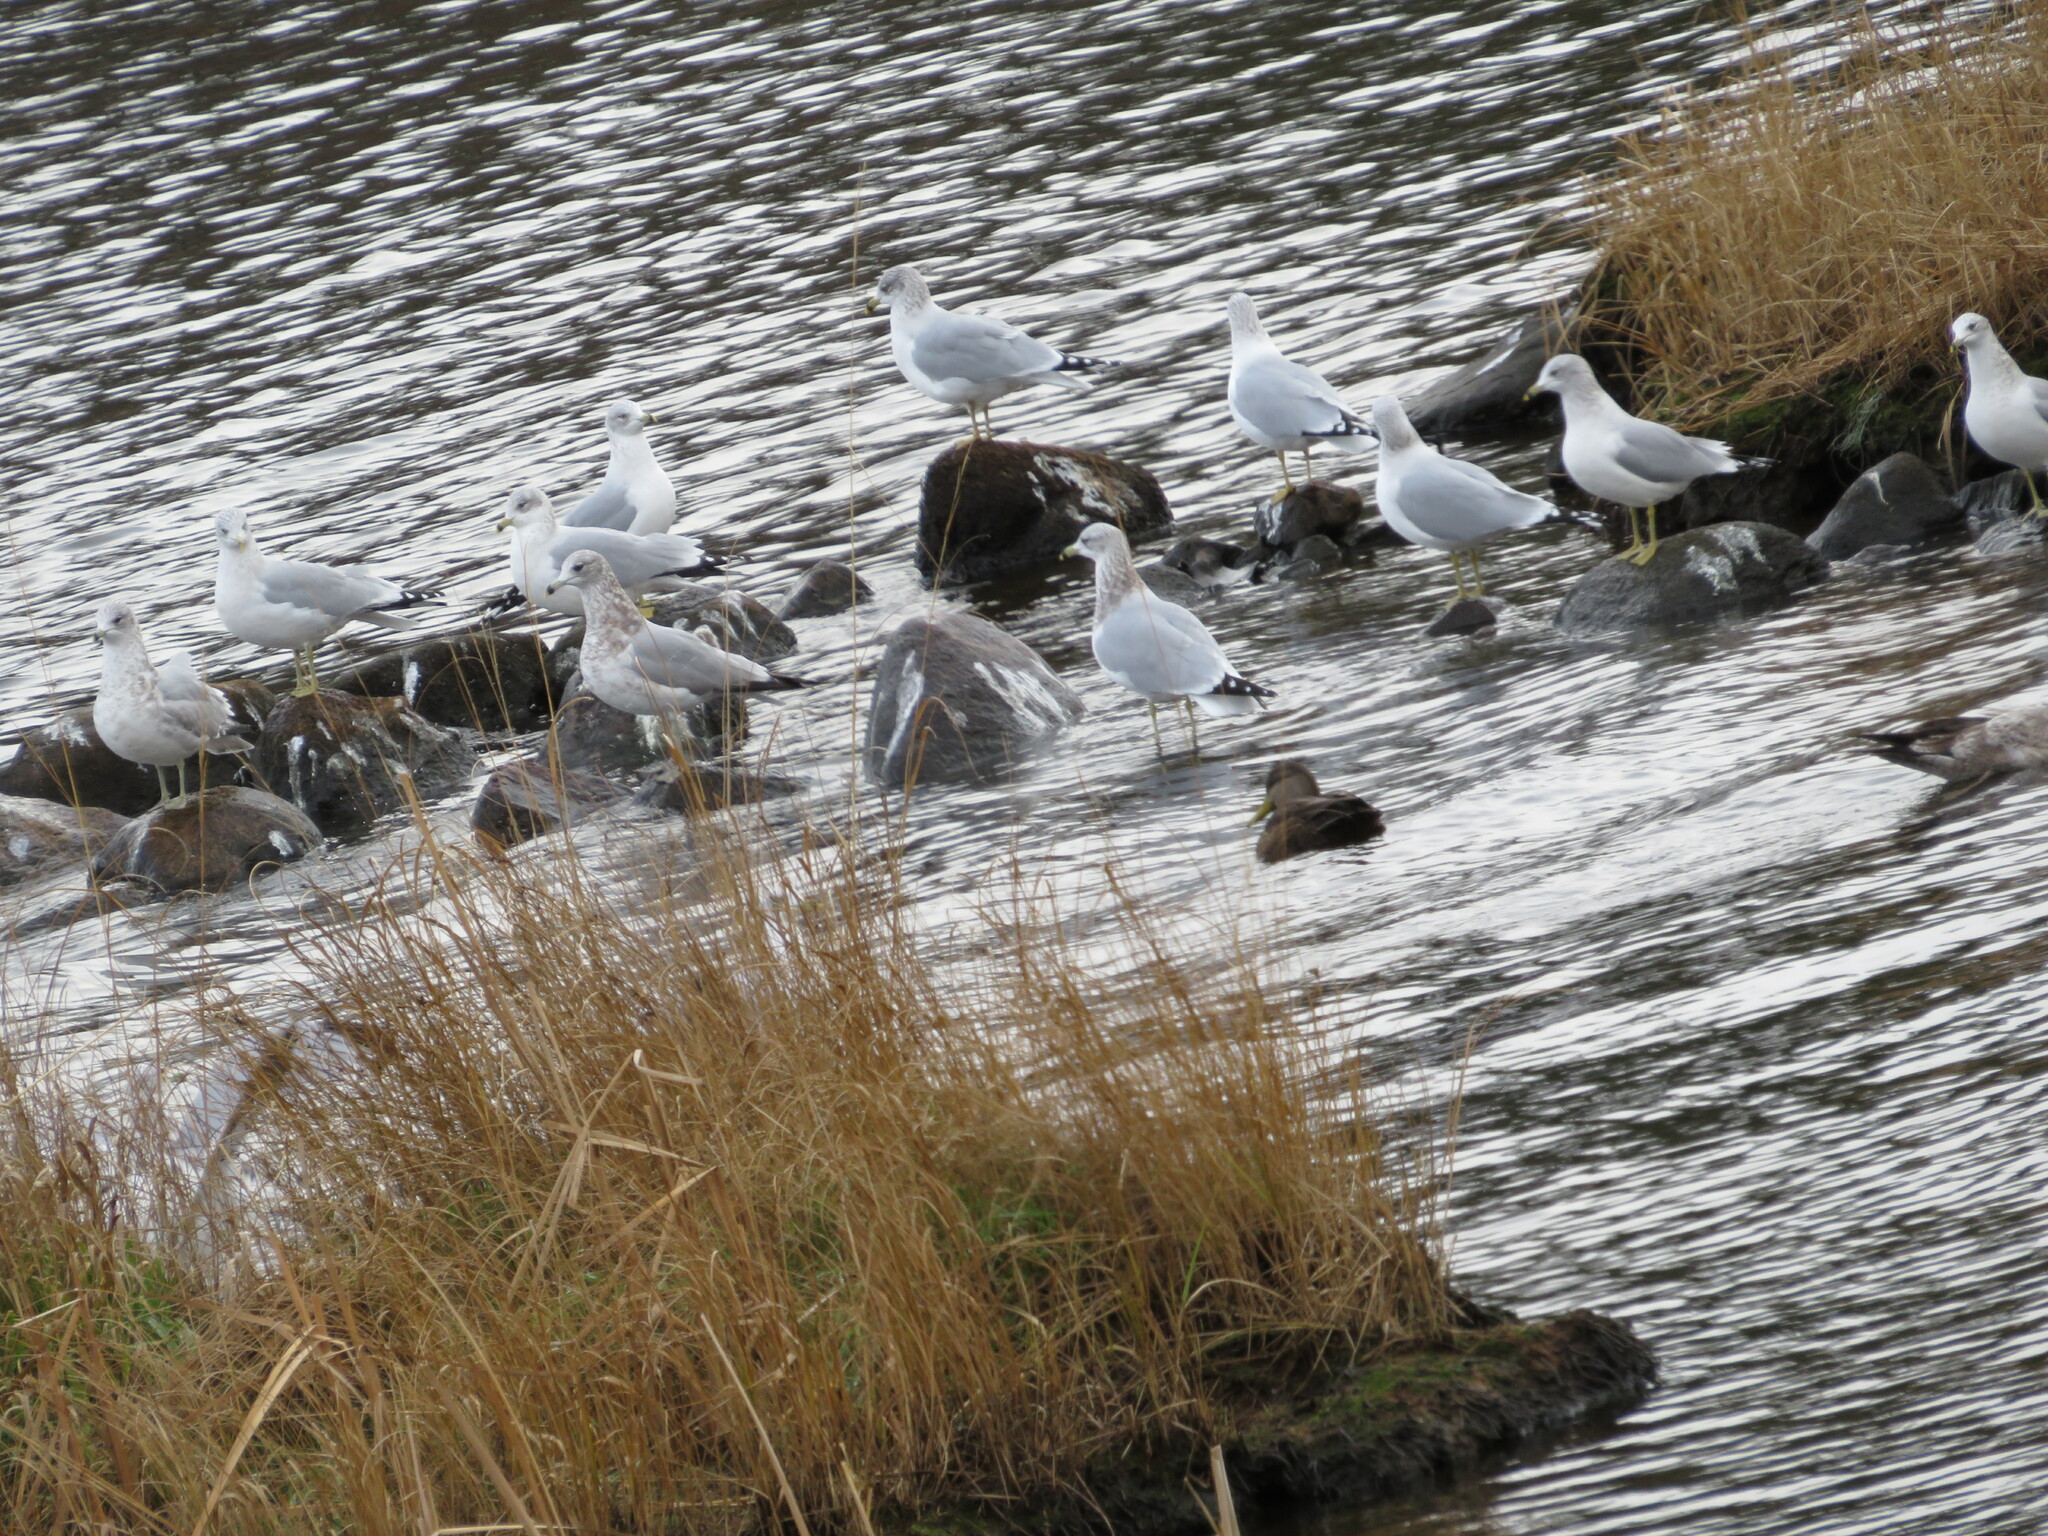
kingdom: Animalia
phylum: Chordata
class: Aves
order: Charadriiformes
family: Laridae
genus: Larus
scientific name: Larus delawarensis
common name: Ring-billed gull
